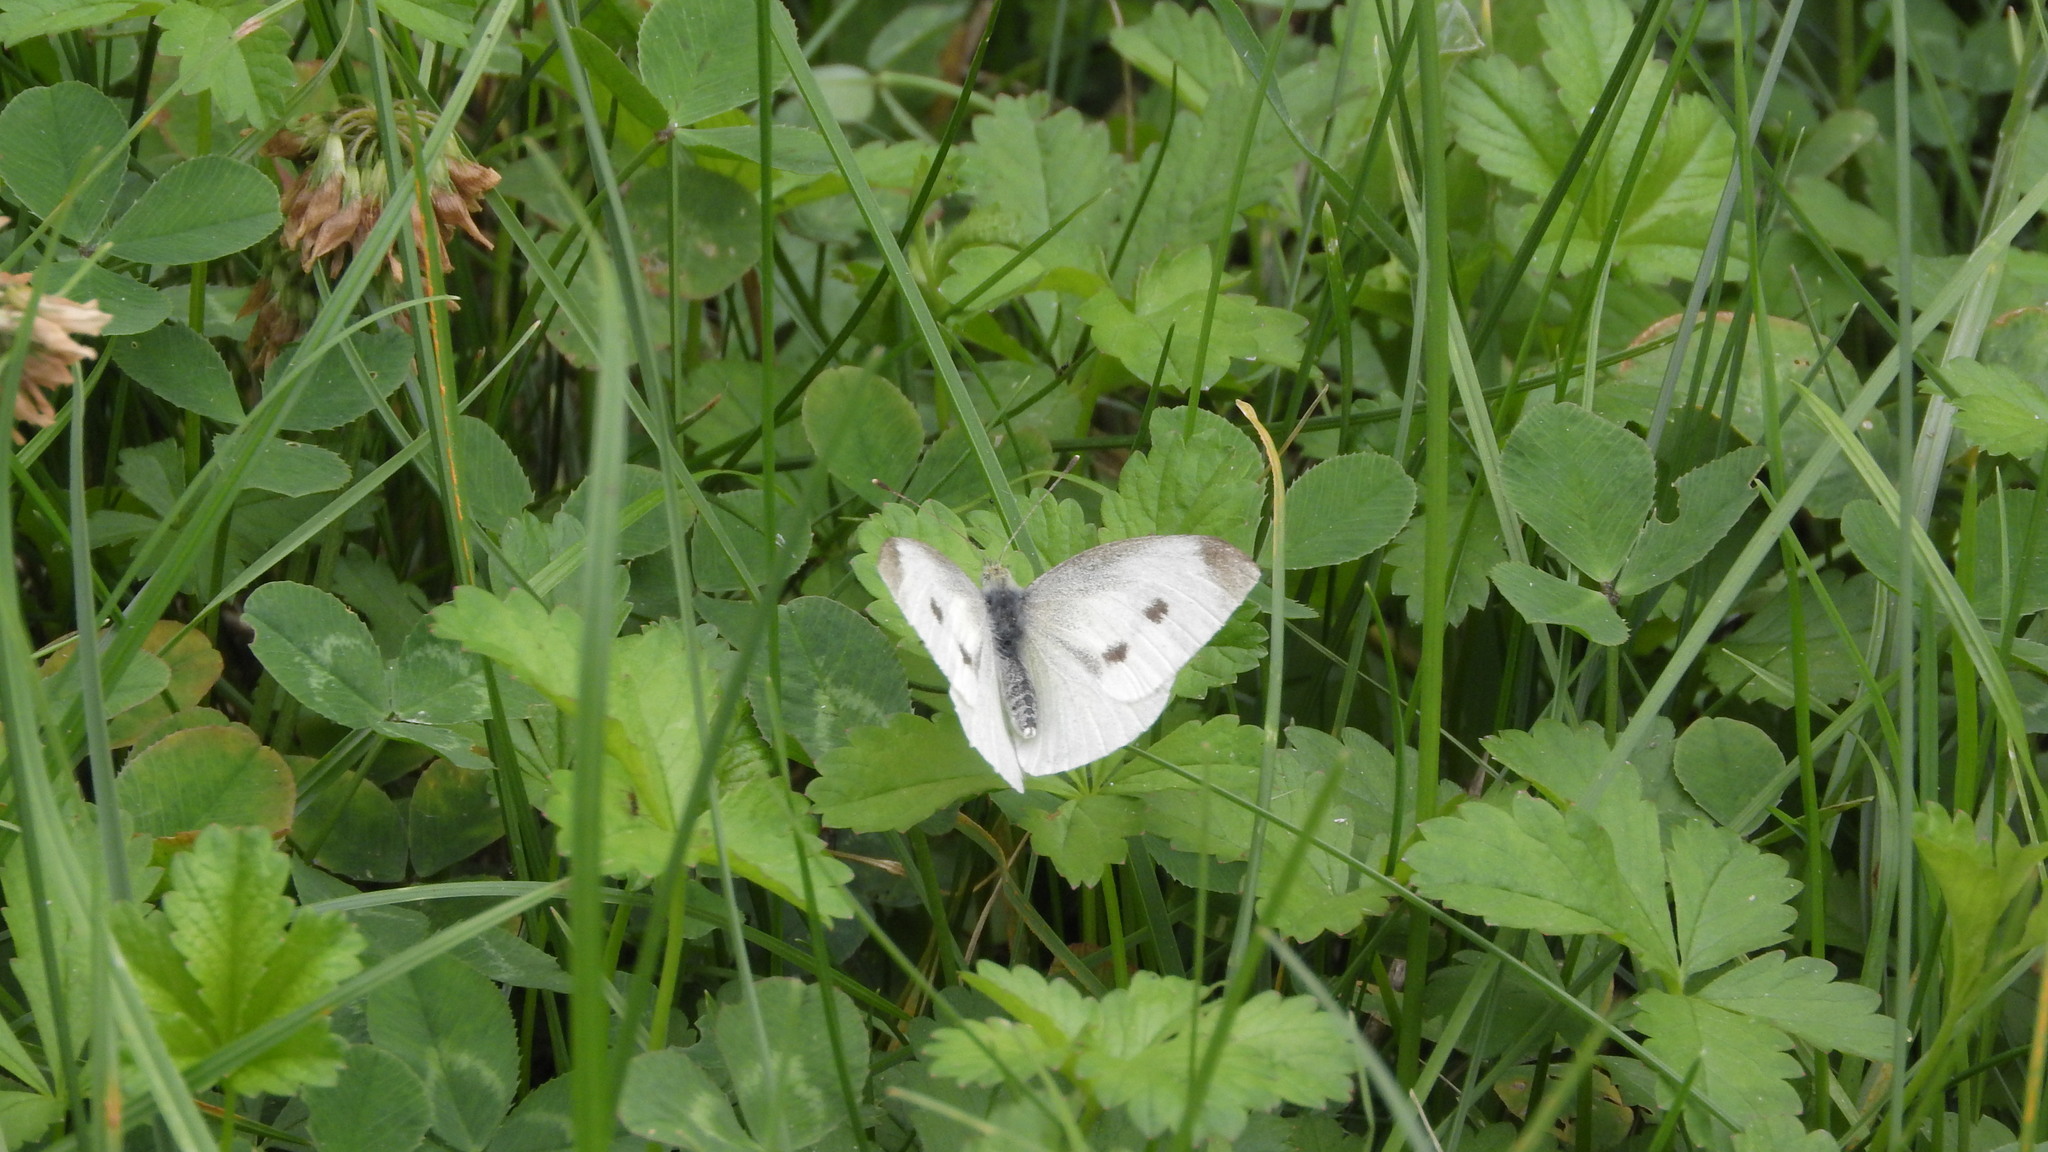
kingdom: Animalia
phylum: Arthropoda
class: Insecta
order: Lepidoptera
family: Pieridae
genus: Pieris
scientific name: Pieris rapae
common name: Small white
